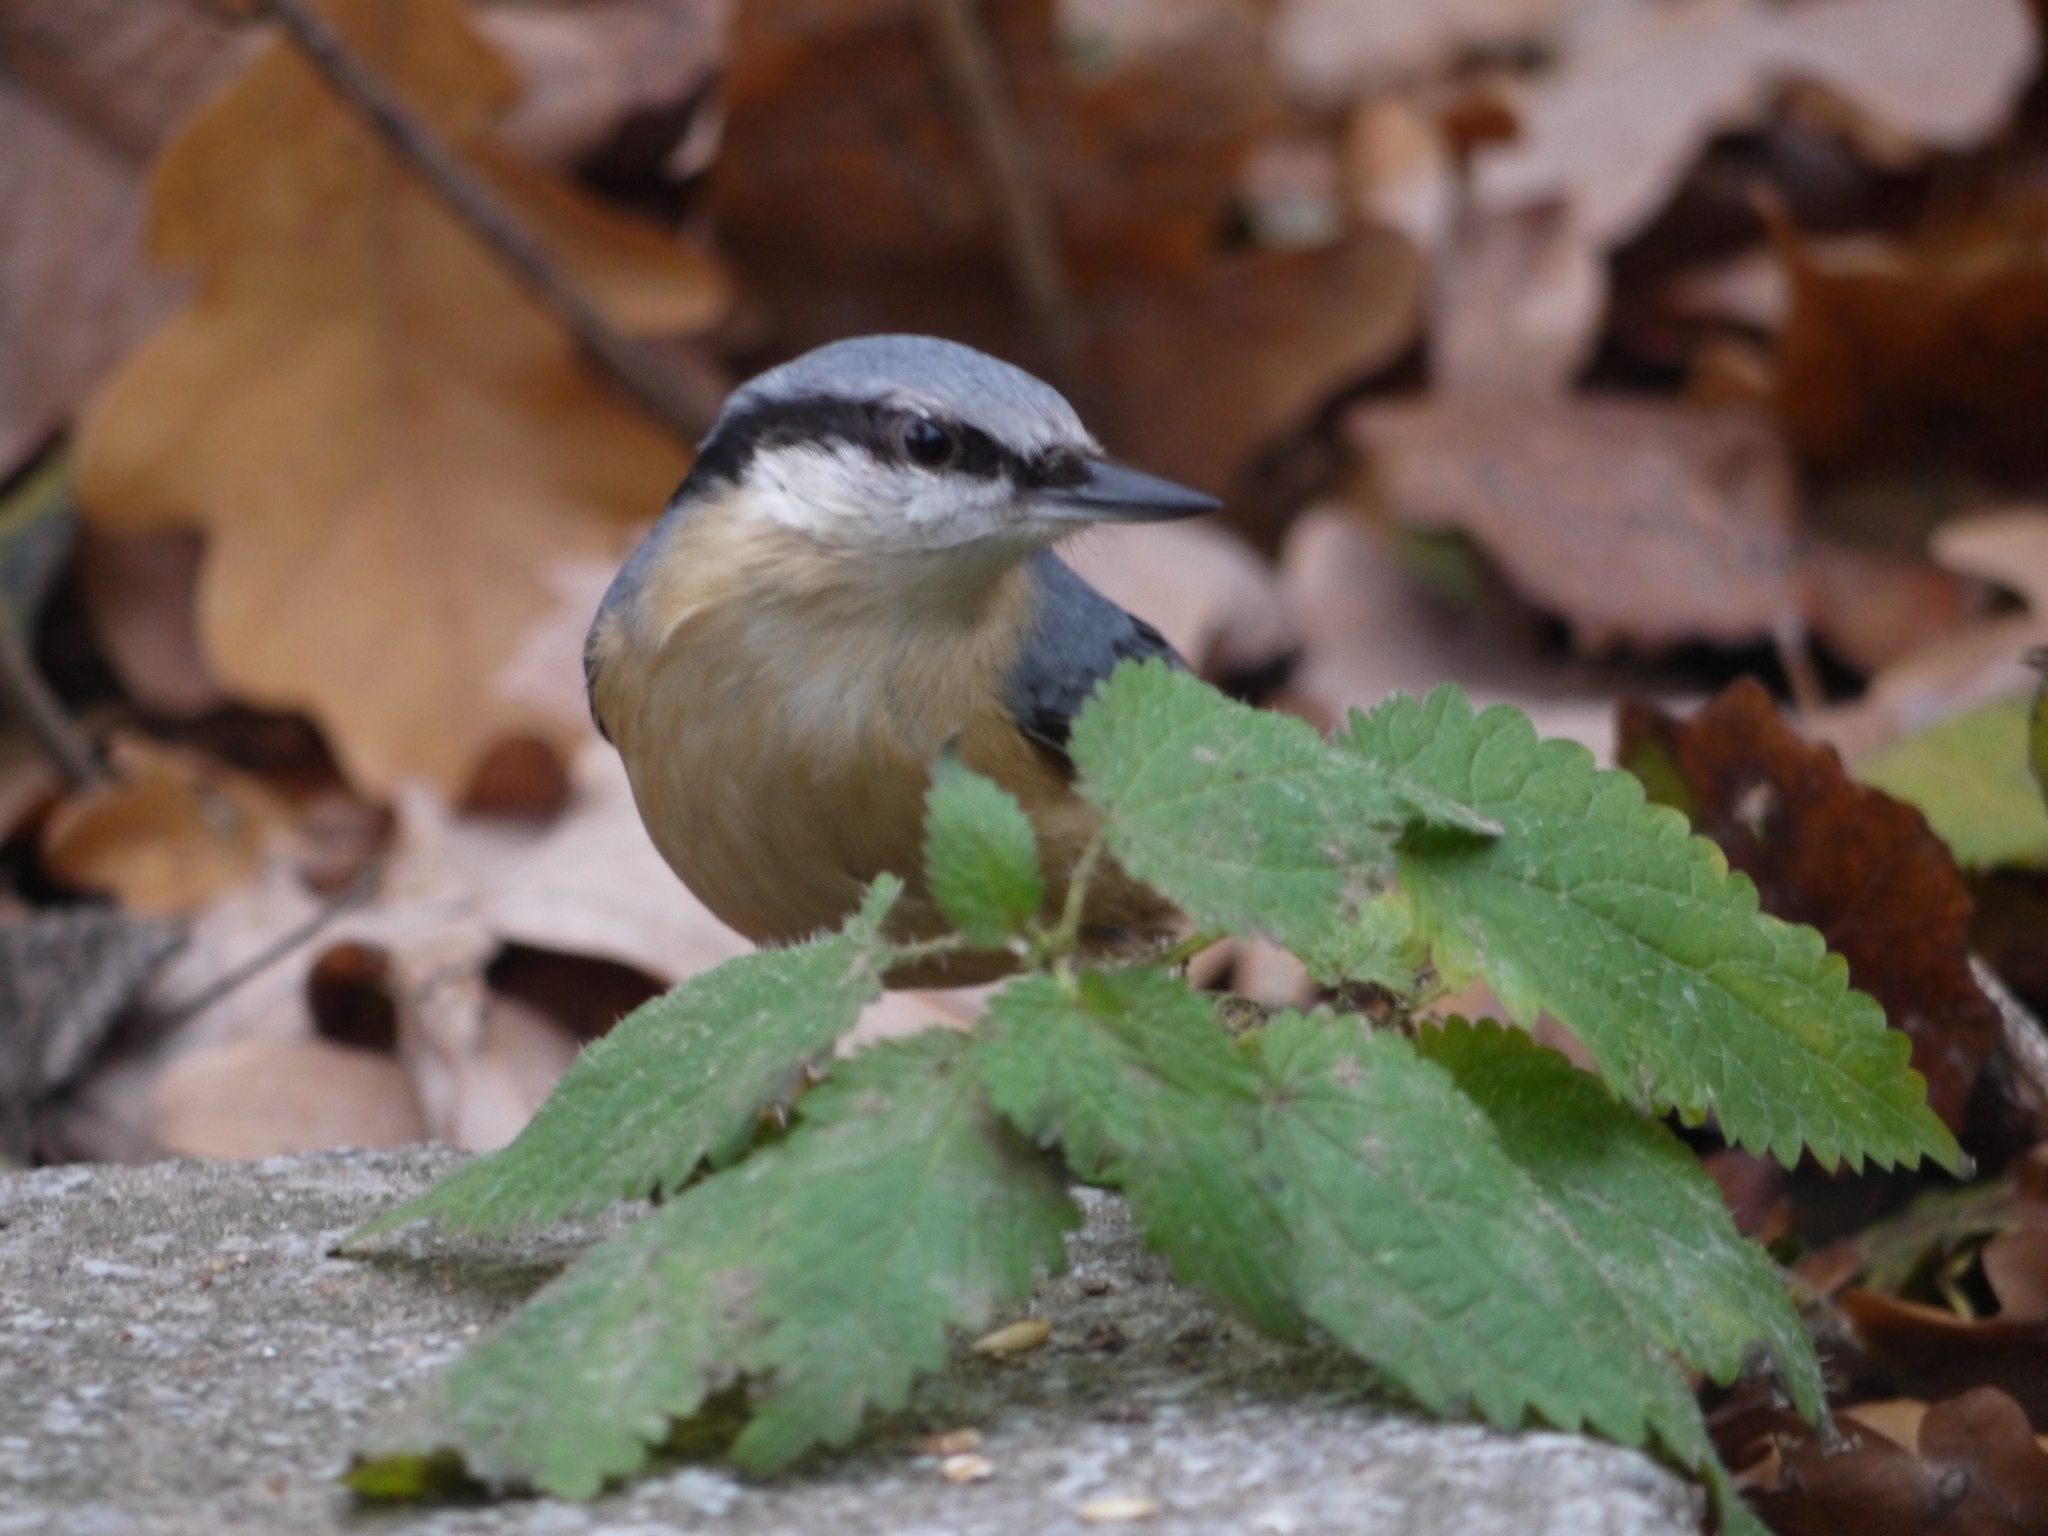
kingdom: Animalia
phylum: Chordata
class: Aves
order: Passeriformes
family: Sittidae
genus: Sitta
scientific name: Sitta europaea
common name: Eurasian nuthatch
